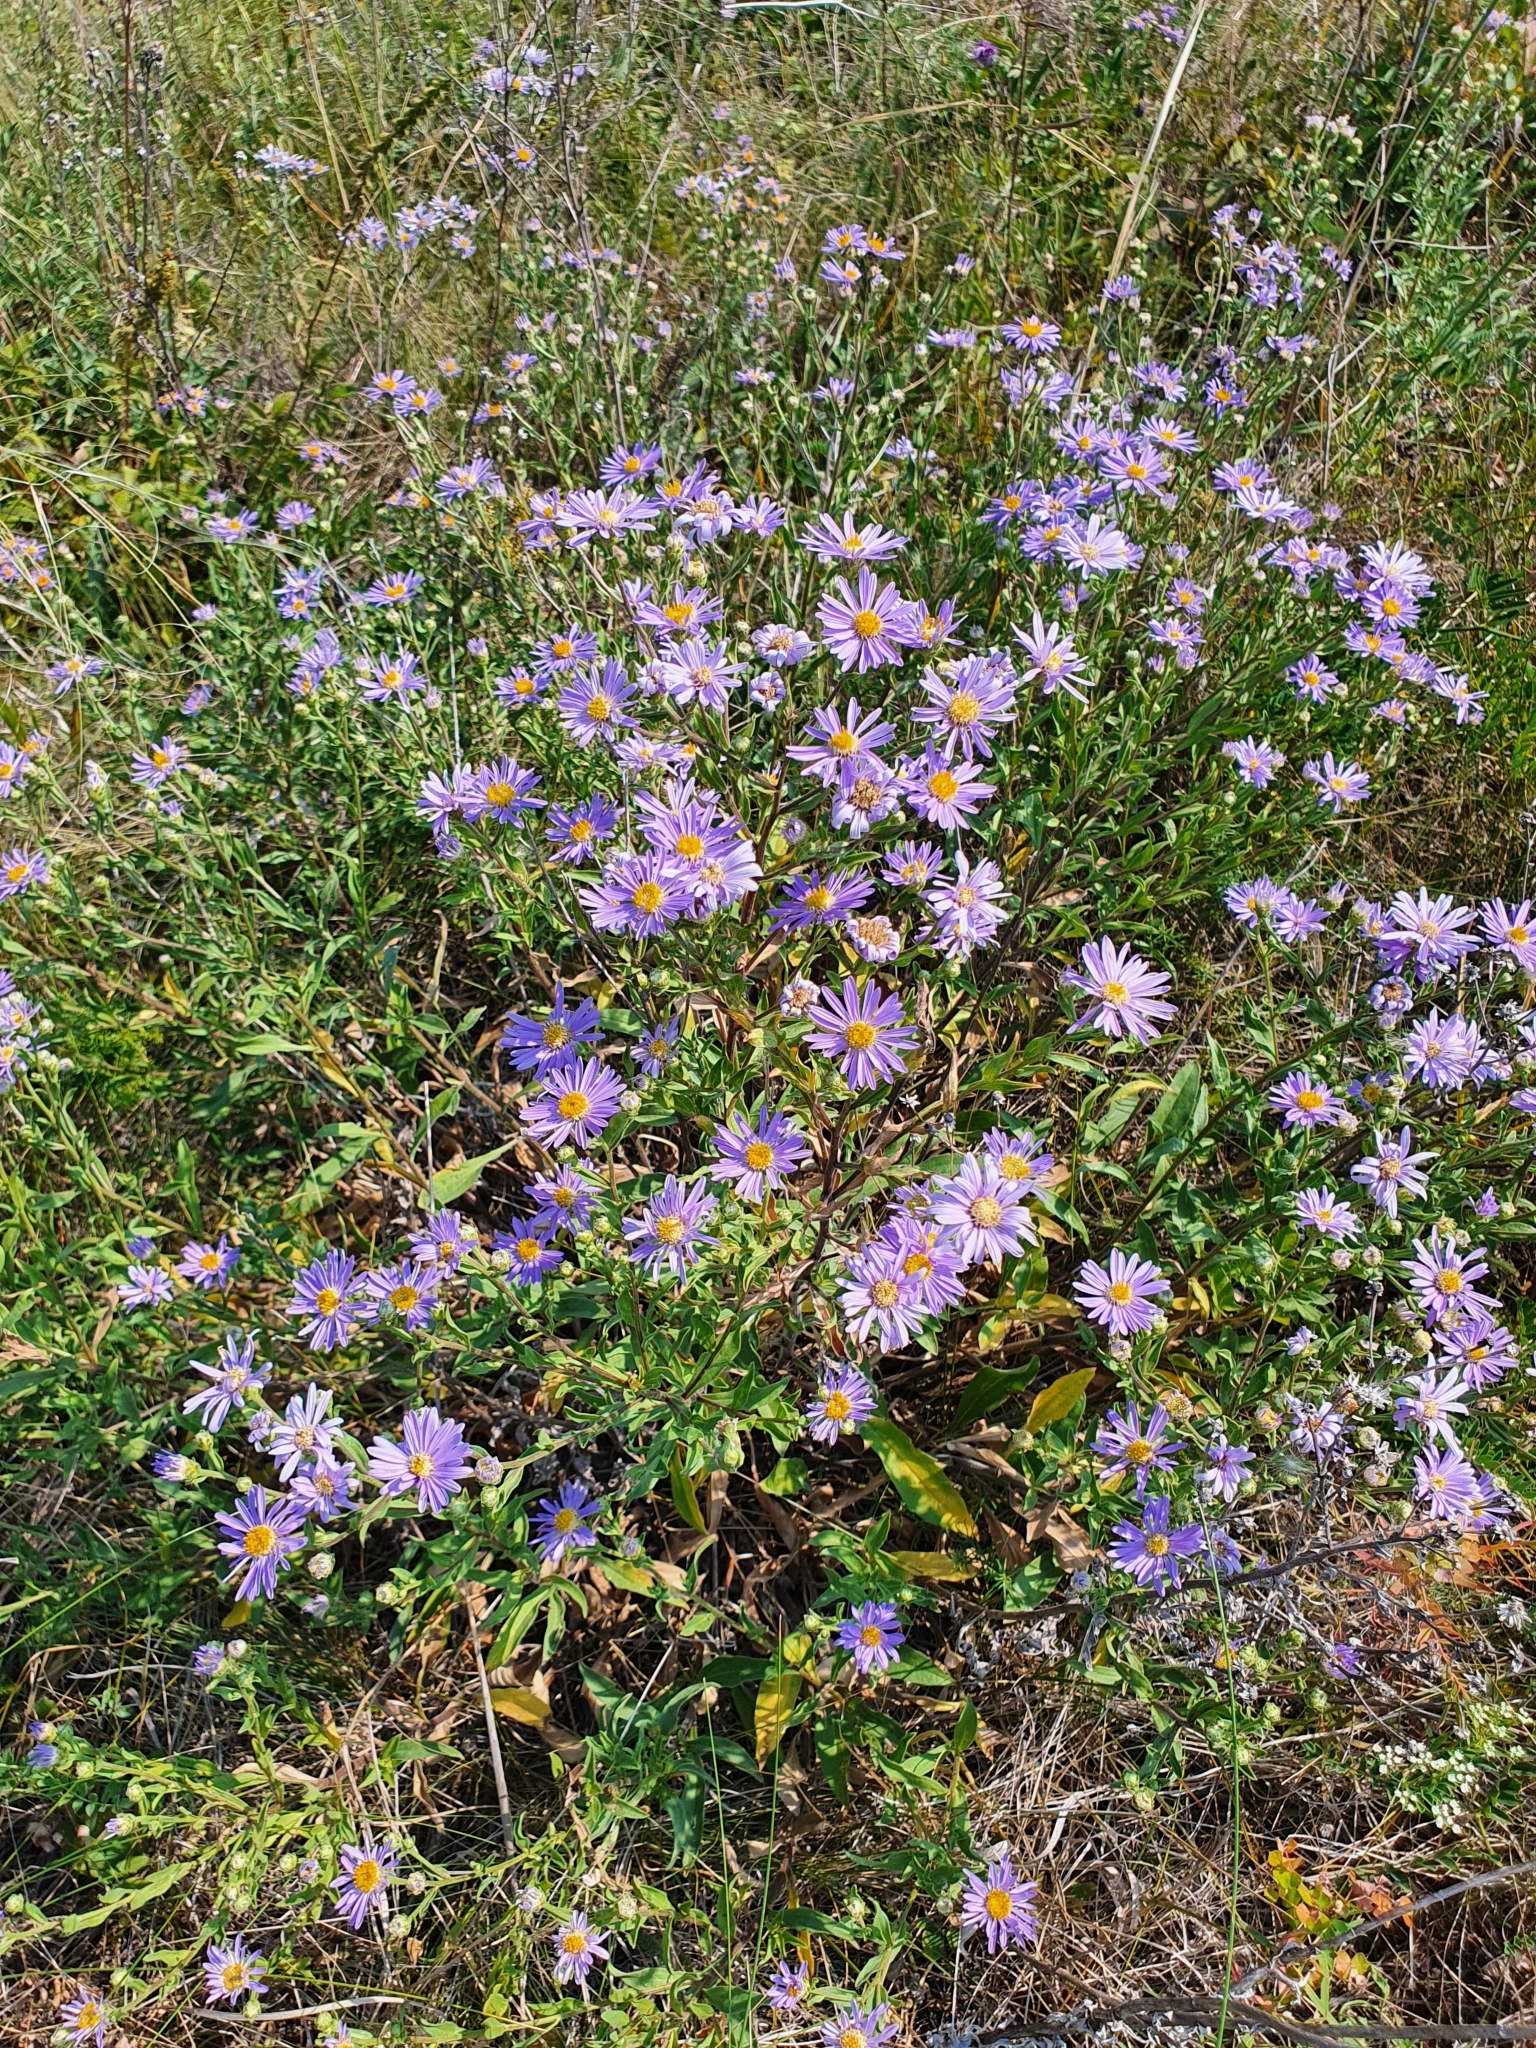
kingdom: Plantae
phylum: Tracheophyta
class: Magnoliopsida
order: Asterales
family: Asteraceae
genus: Aster
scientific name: Aster amellus
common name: European michaelmas daisy
